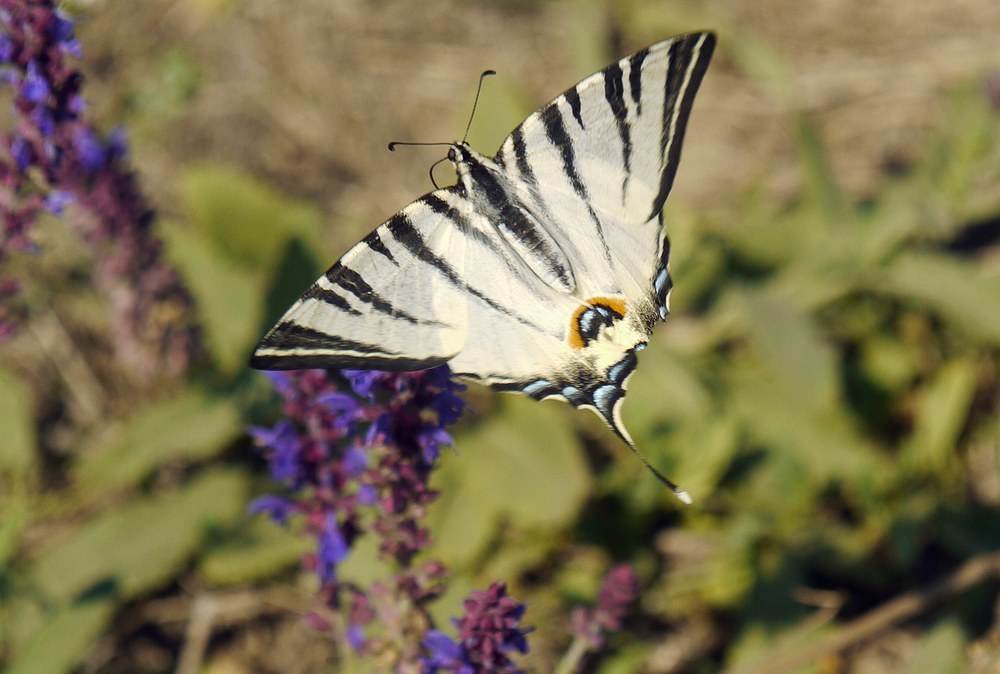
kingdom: Animalia
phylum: Arthropoda
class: Insecta
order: Lepidoptera
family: Papilionidae
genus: Iphiclides
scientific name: Iphiclides podalirius
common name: Scarce swallowtail
